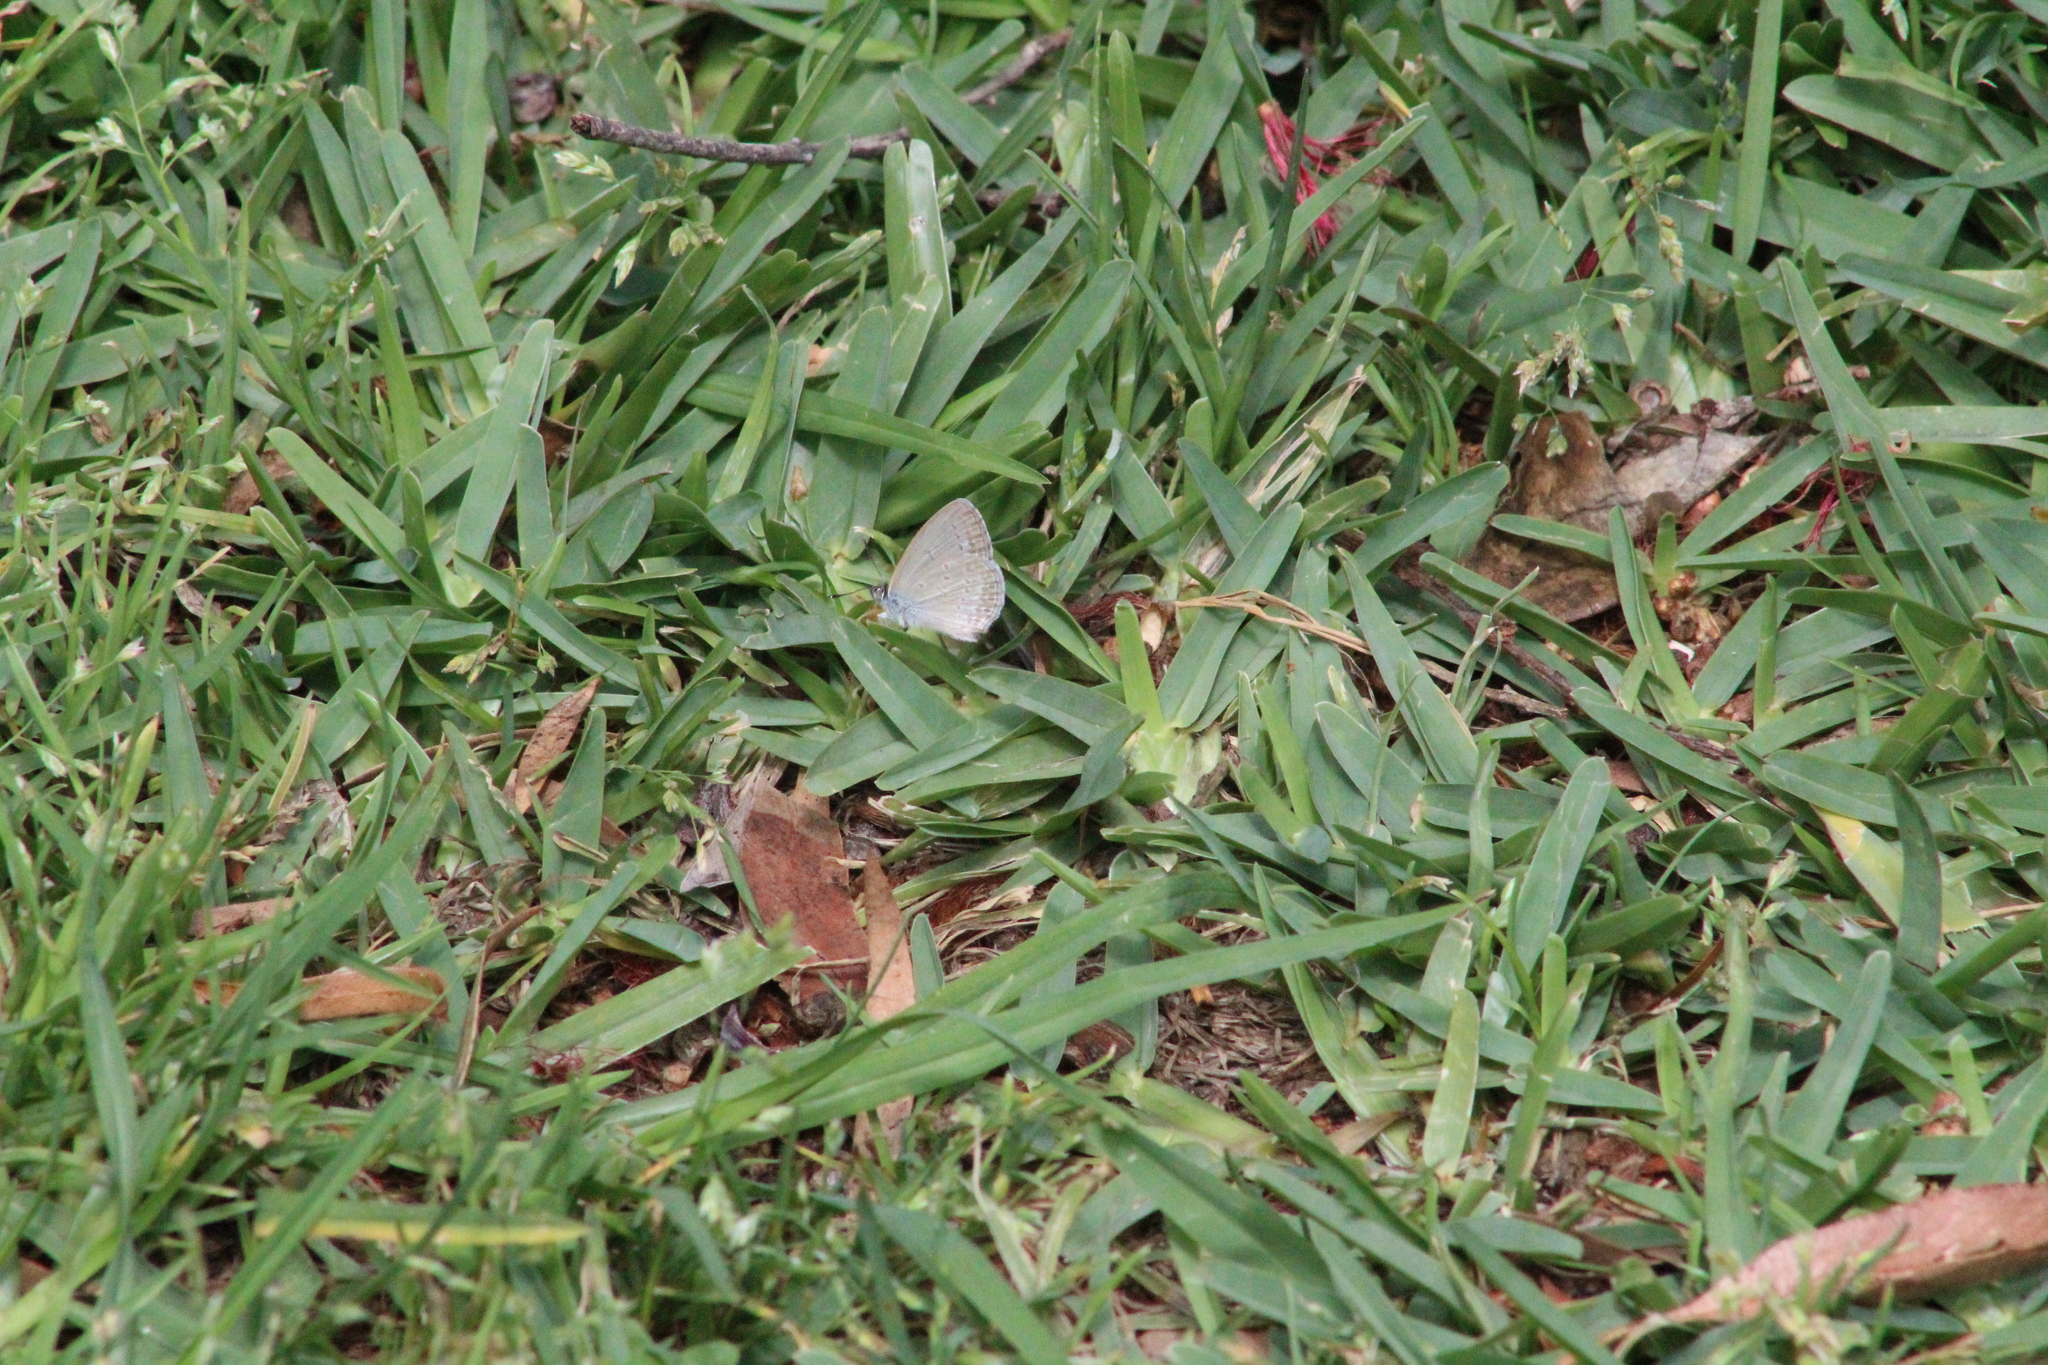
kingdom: Animalia
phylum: Arthropoda
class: Insecta
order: Lepidoptera
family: Lycaenidae
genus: Zizina
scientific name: Zizina labradus
